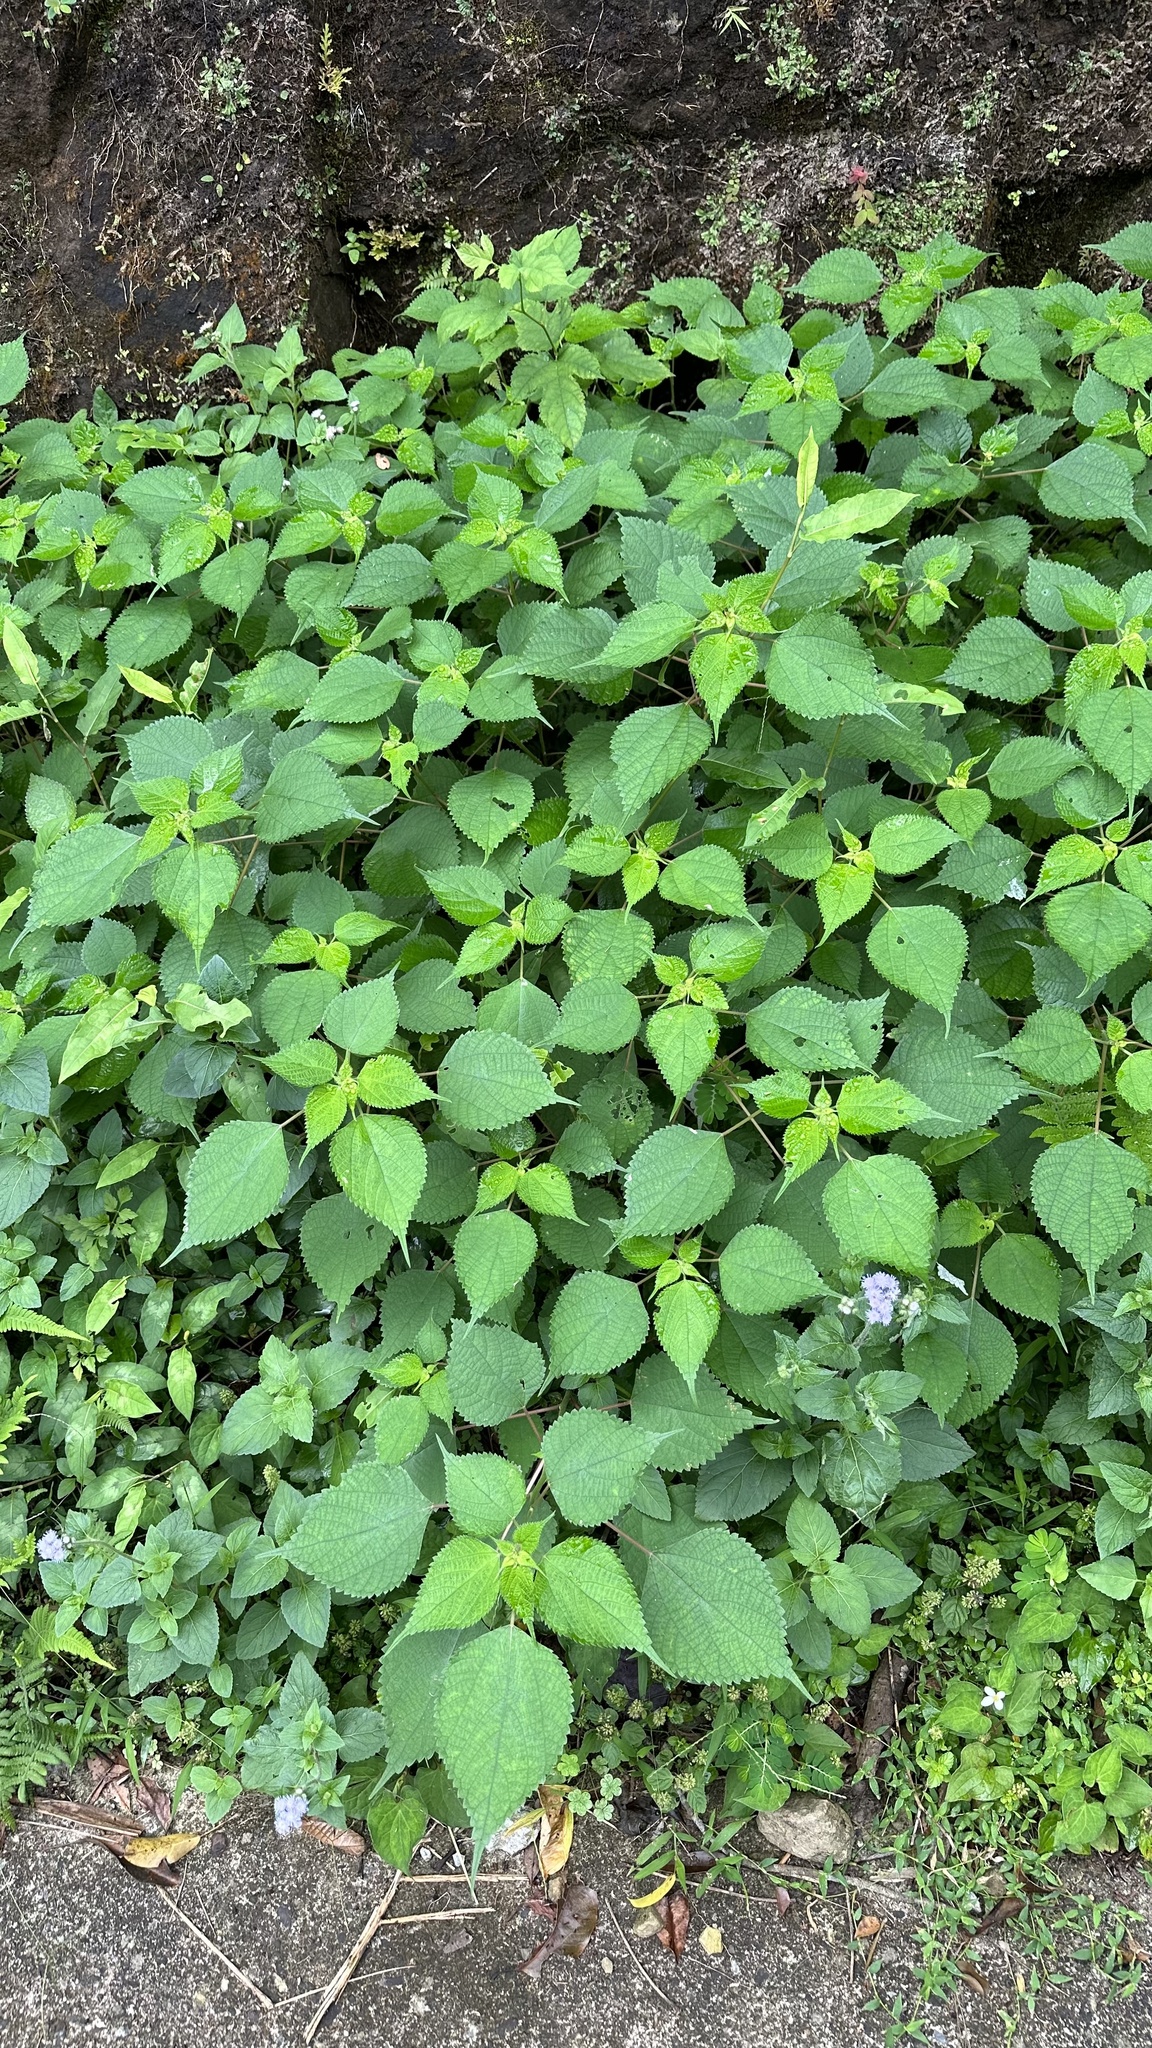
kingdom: Plantae
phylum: Tracheophyta
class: Magnoliopsida
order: Rosales
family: Urticaceae
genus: Boehmeria
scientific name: Boehmeria nivea
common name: Ramie chinese grass
